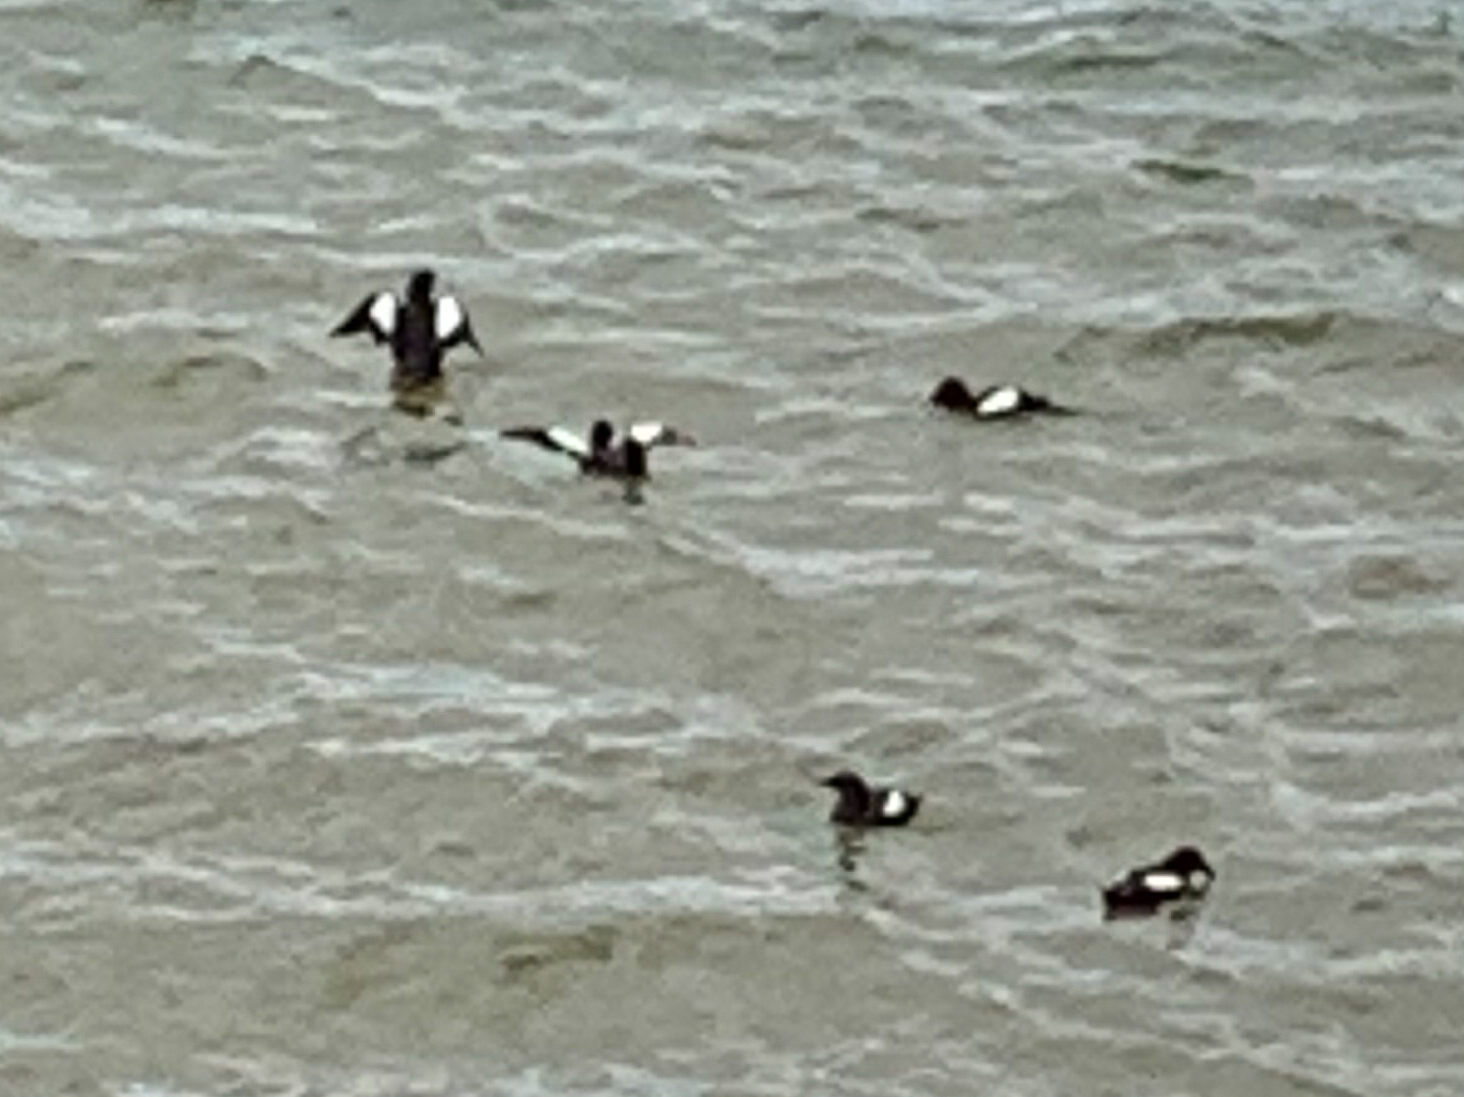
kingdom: Animalia
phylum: Chordata
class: Aves
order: Charadriiformes
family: Alcidae
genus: Cepphus
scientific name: Cepphus grylle
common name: Black guillemot
